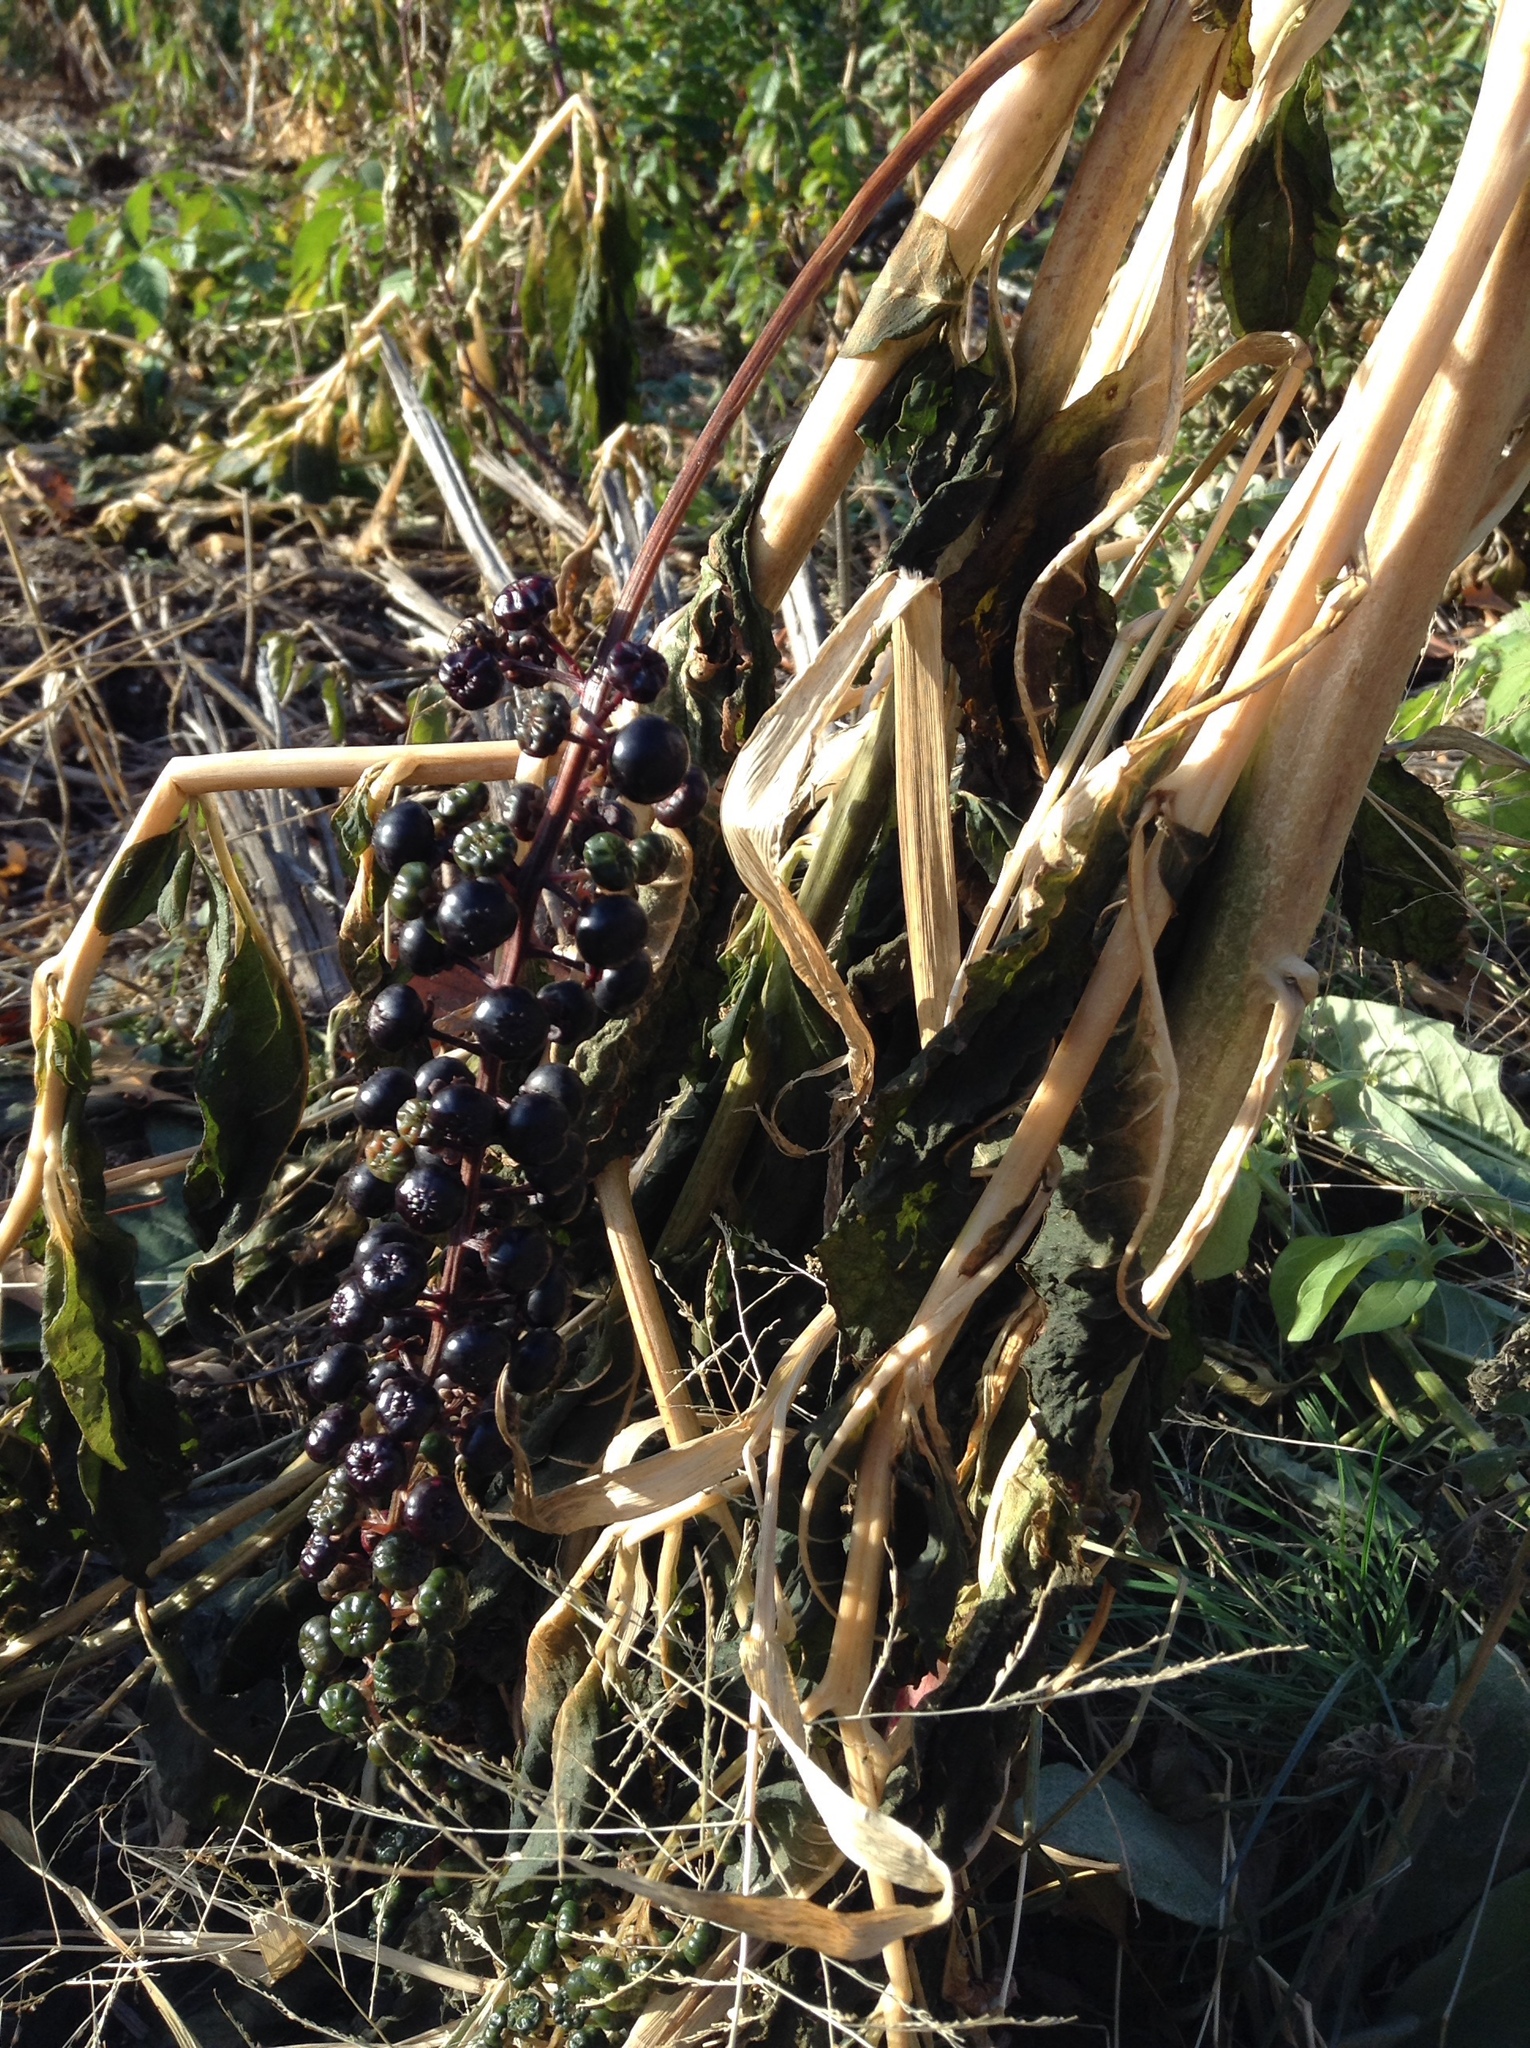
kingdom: Plantae
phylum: Tracheophyta
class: Magnoliopsida
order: Caryophyllales
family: Phytolaccaceae
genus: Phytolacca
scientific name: Phytolacca americana
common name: American pokeweed
